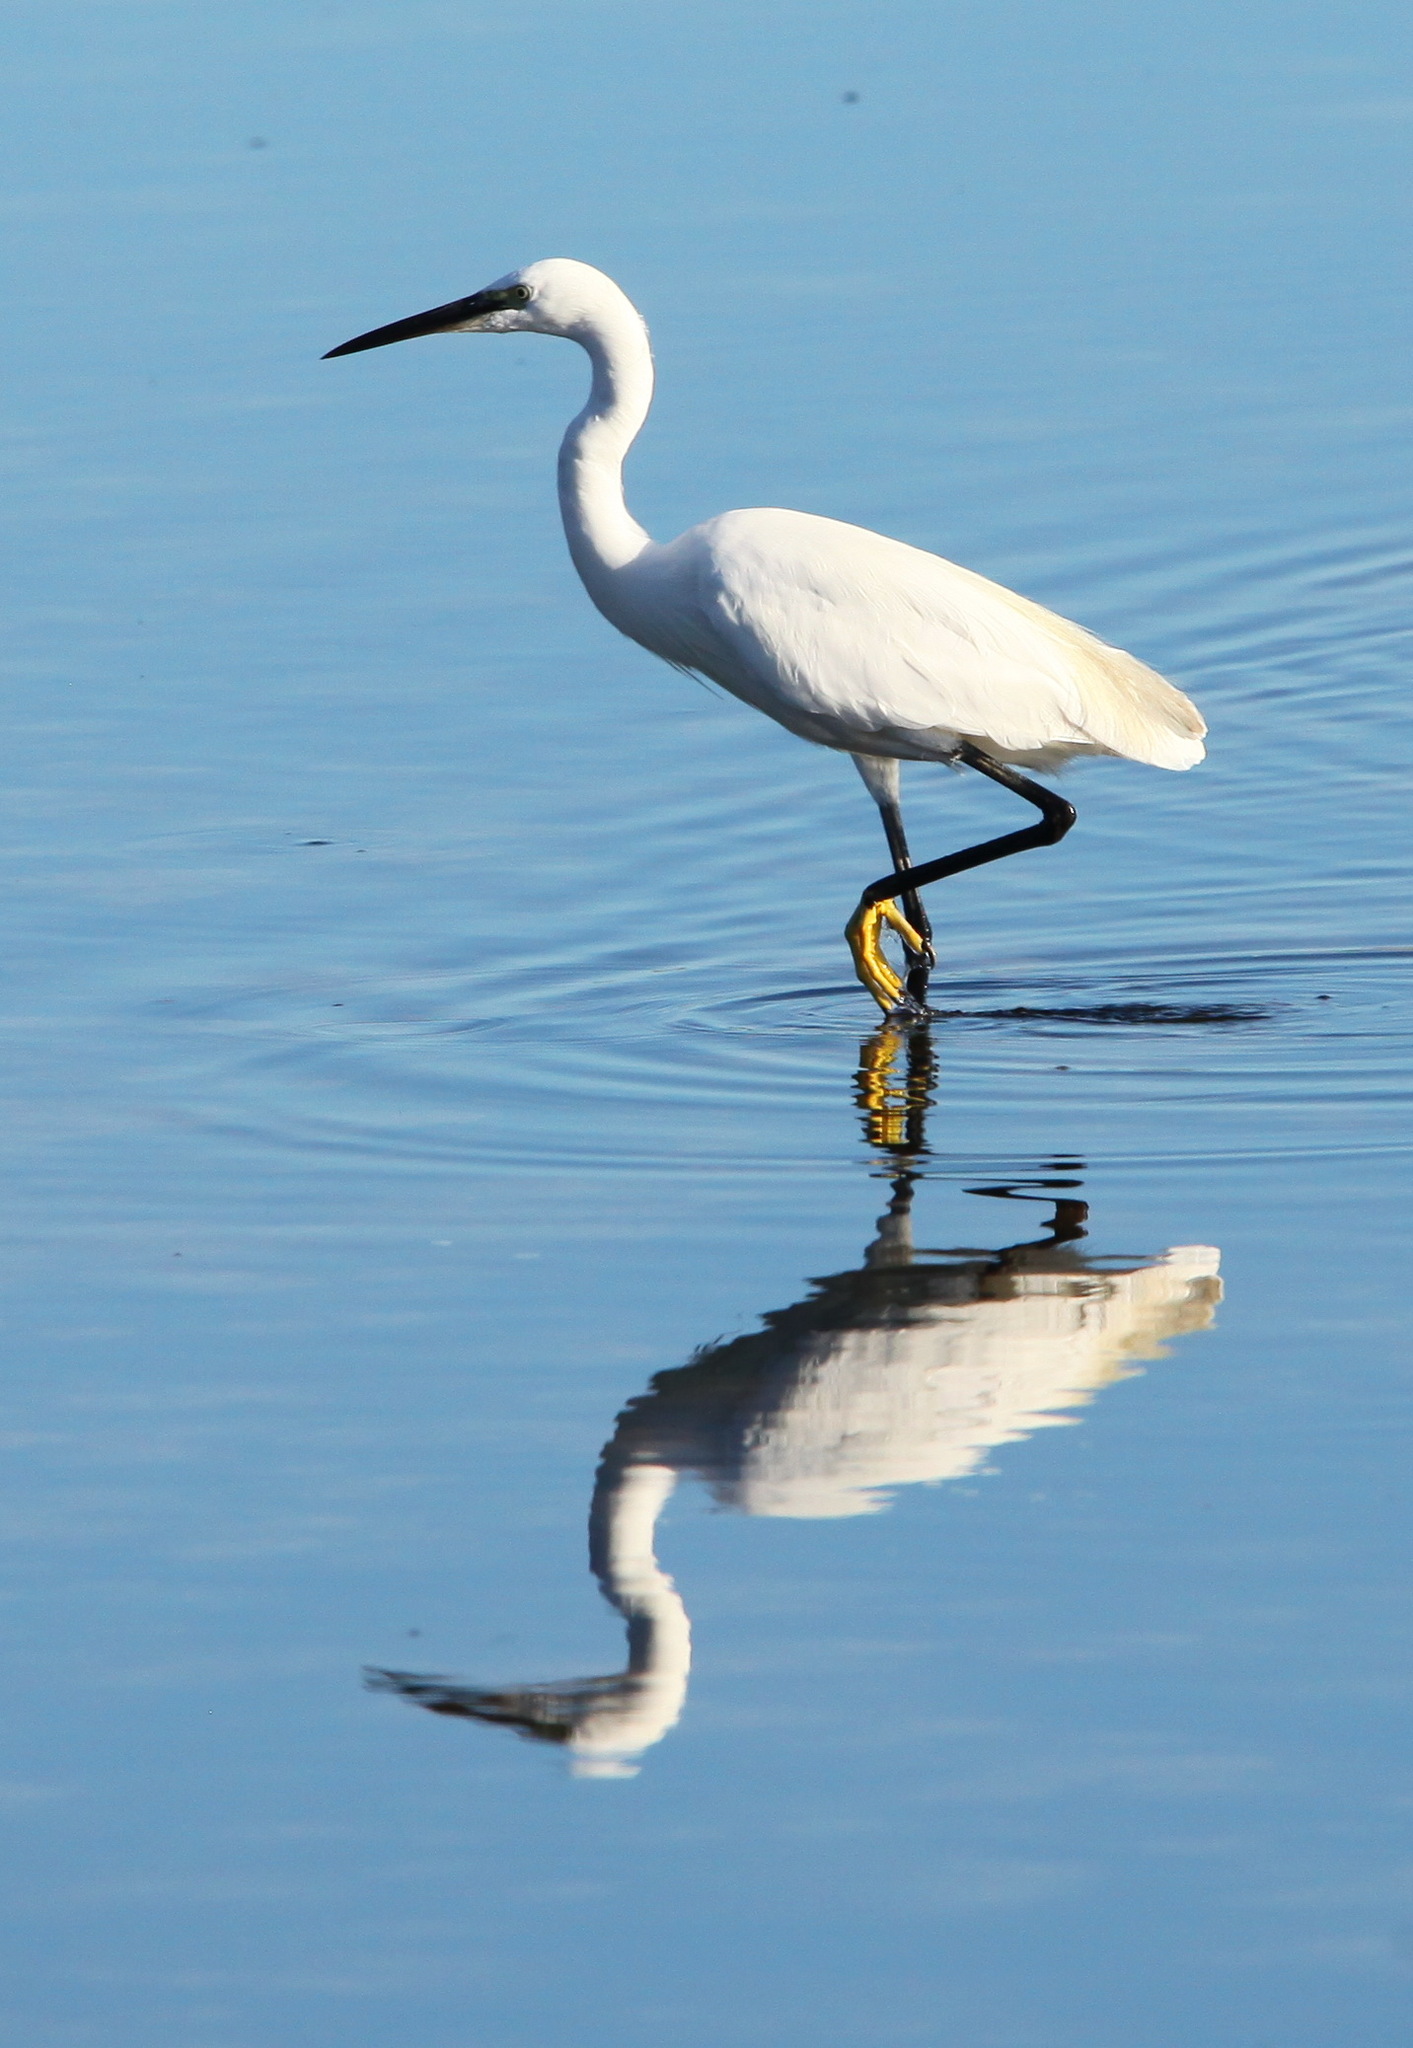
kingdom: Animalia
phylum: Chordata
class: Aves
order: Pelecaniformes
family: Ardeidae
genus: Egretta
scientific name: Egretta garzetta
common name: Little egret
